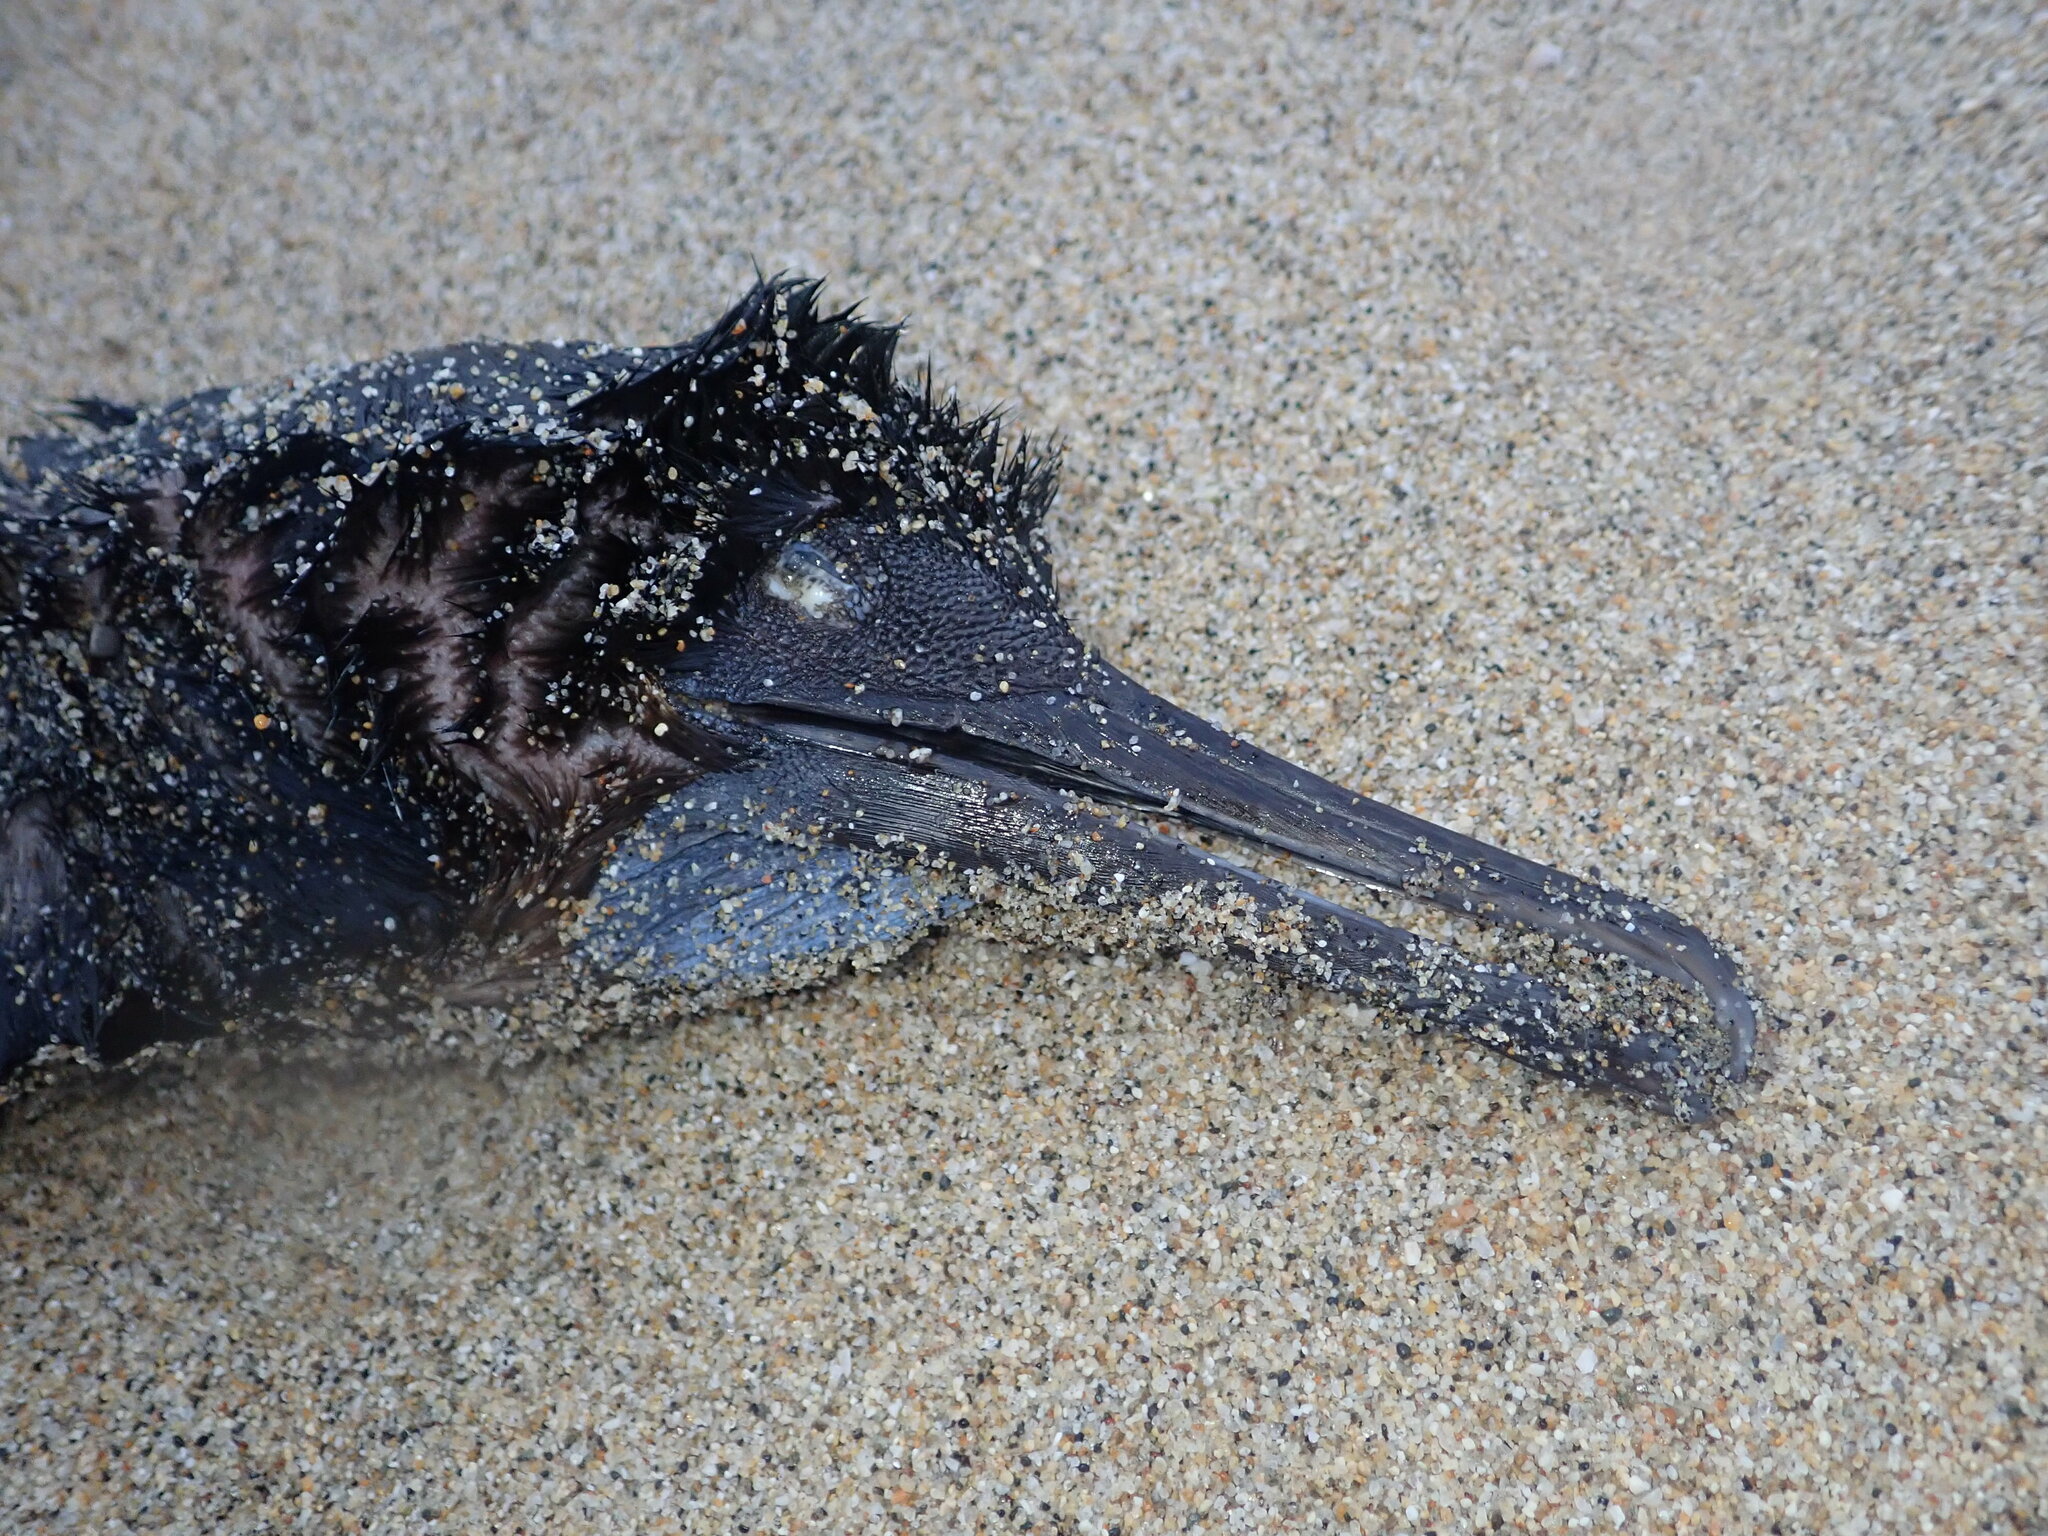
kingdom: Animalia
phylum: Chordata
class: Aves
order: Suliformes
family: Phalacrocoracidae
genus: Urile
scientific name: Urile penicillatus
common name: Brandt's cormorant
